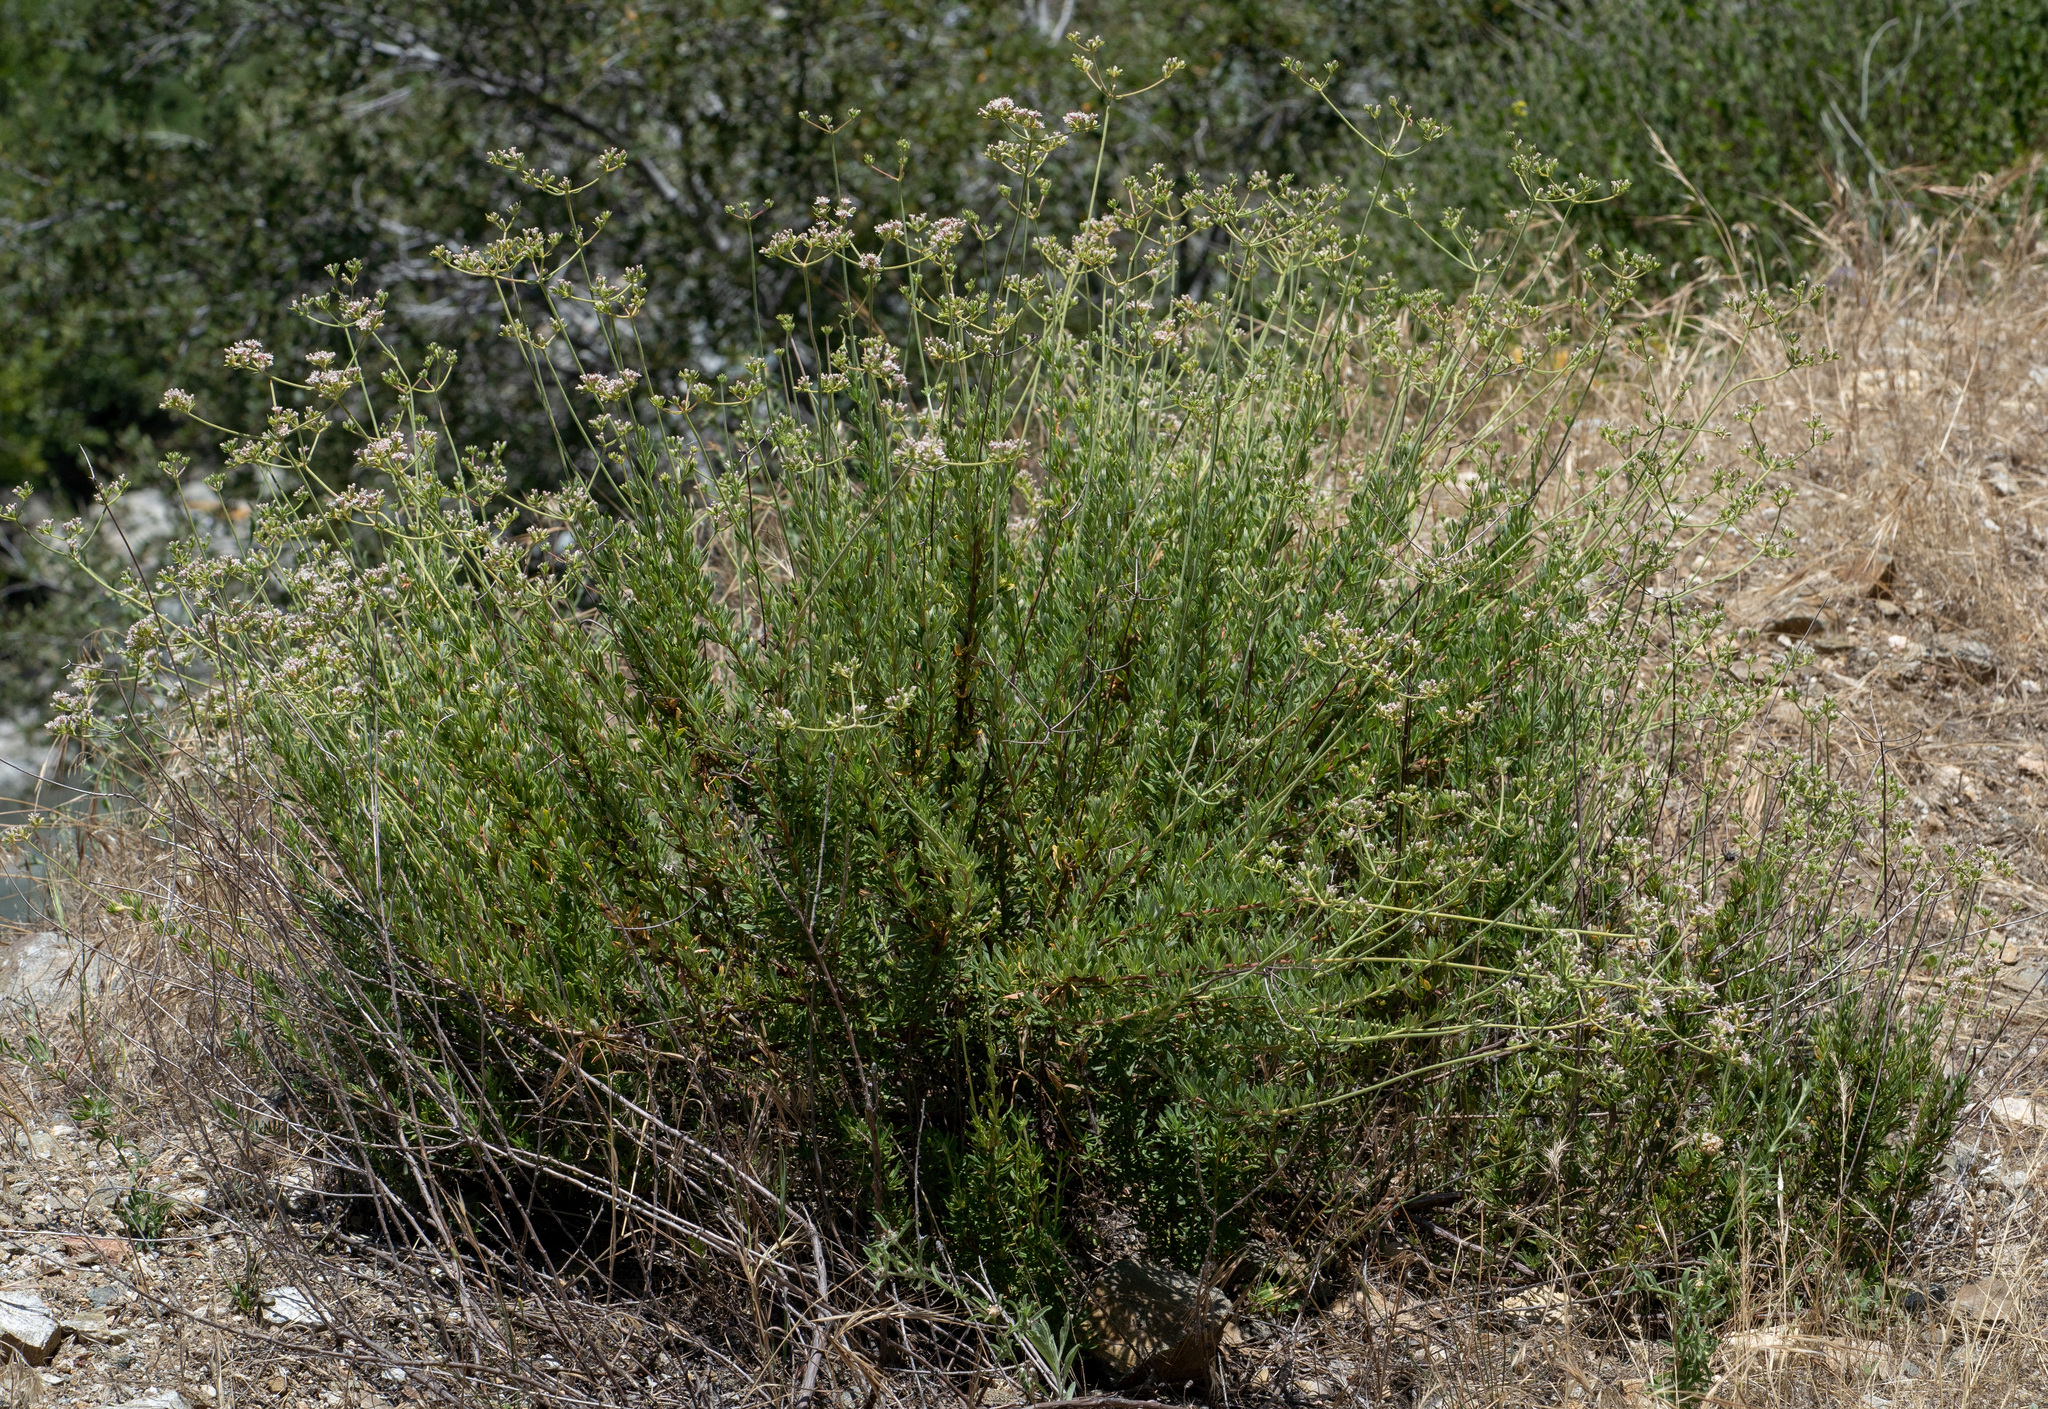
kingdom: Plantae
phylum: Tracheophyta
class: Magnoliopsida
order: Caryophyllales
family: Polygonaceae
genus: Eriogonum
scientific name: Eriogonum fasciculatum
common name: California wild buckwheat
